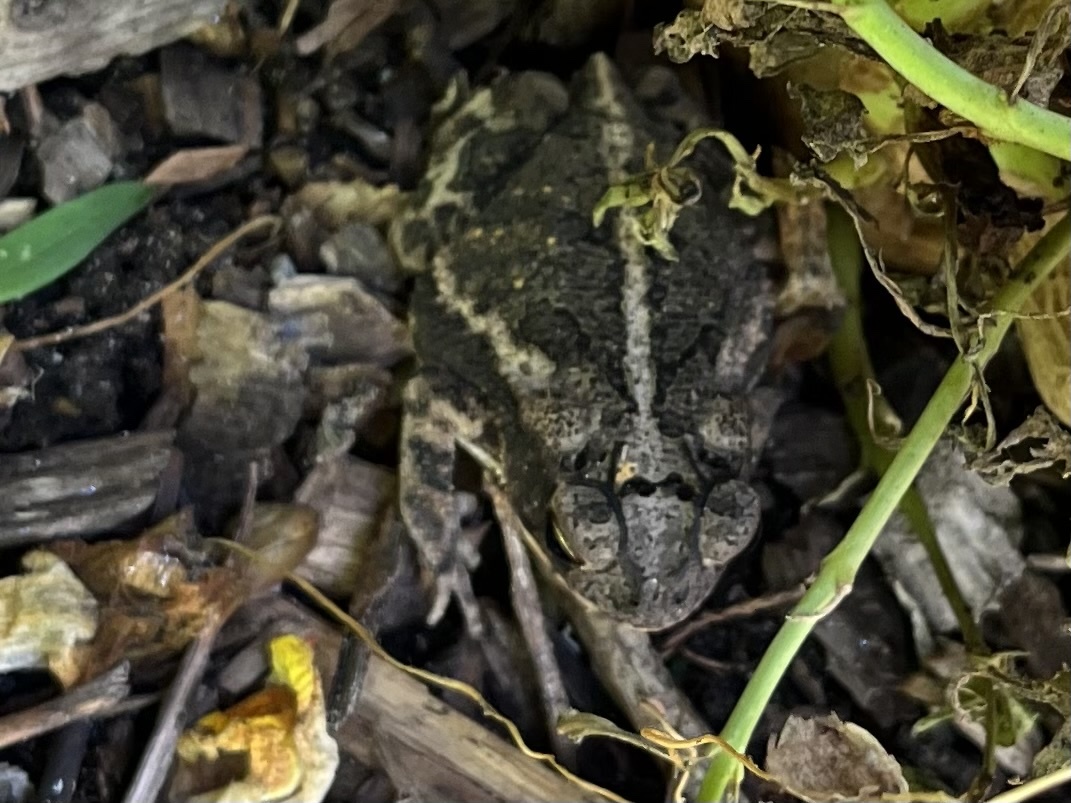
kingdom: Animalia
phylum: Chordata
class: Amphibia
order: Anura
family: Bufonidae
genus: Incilius
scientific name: Incilius nebulifer
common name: Gulf coast toad
